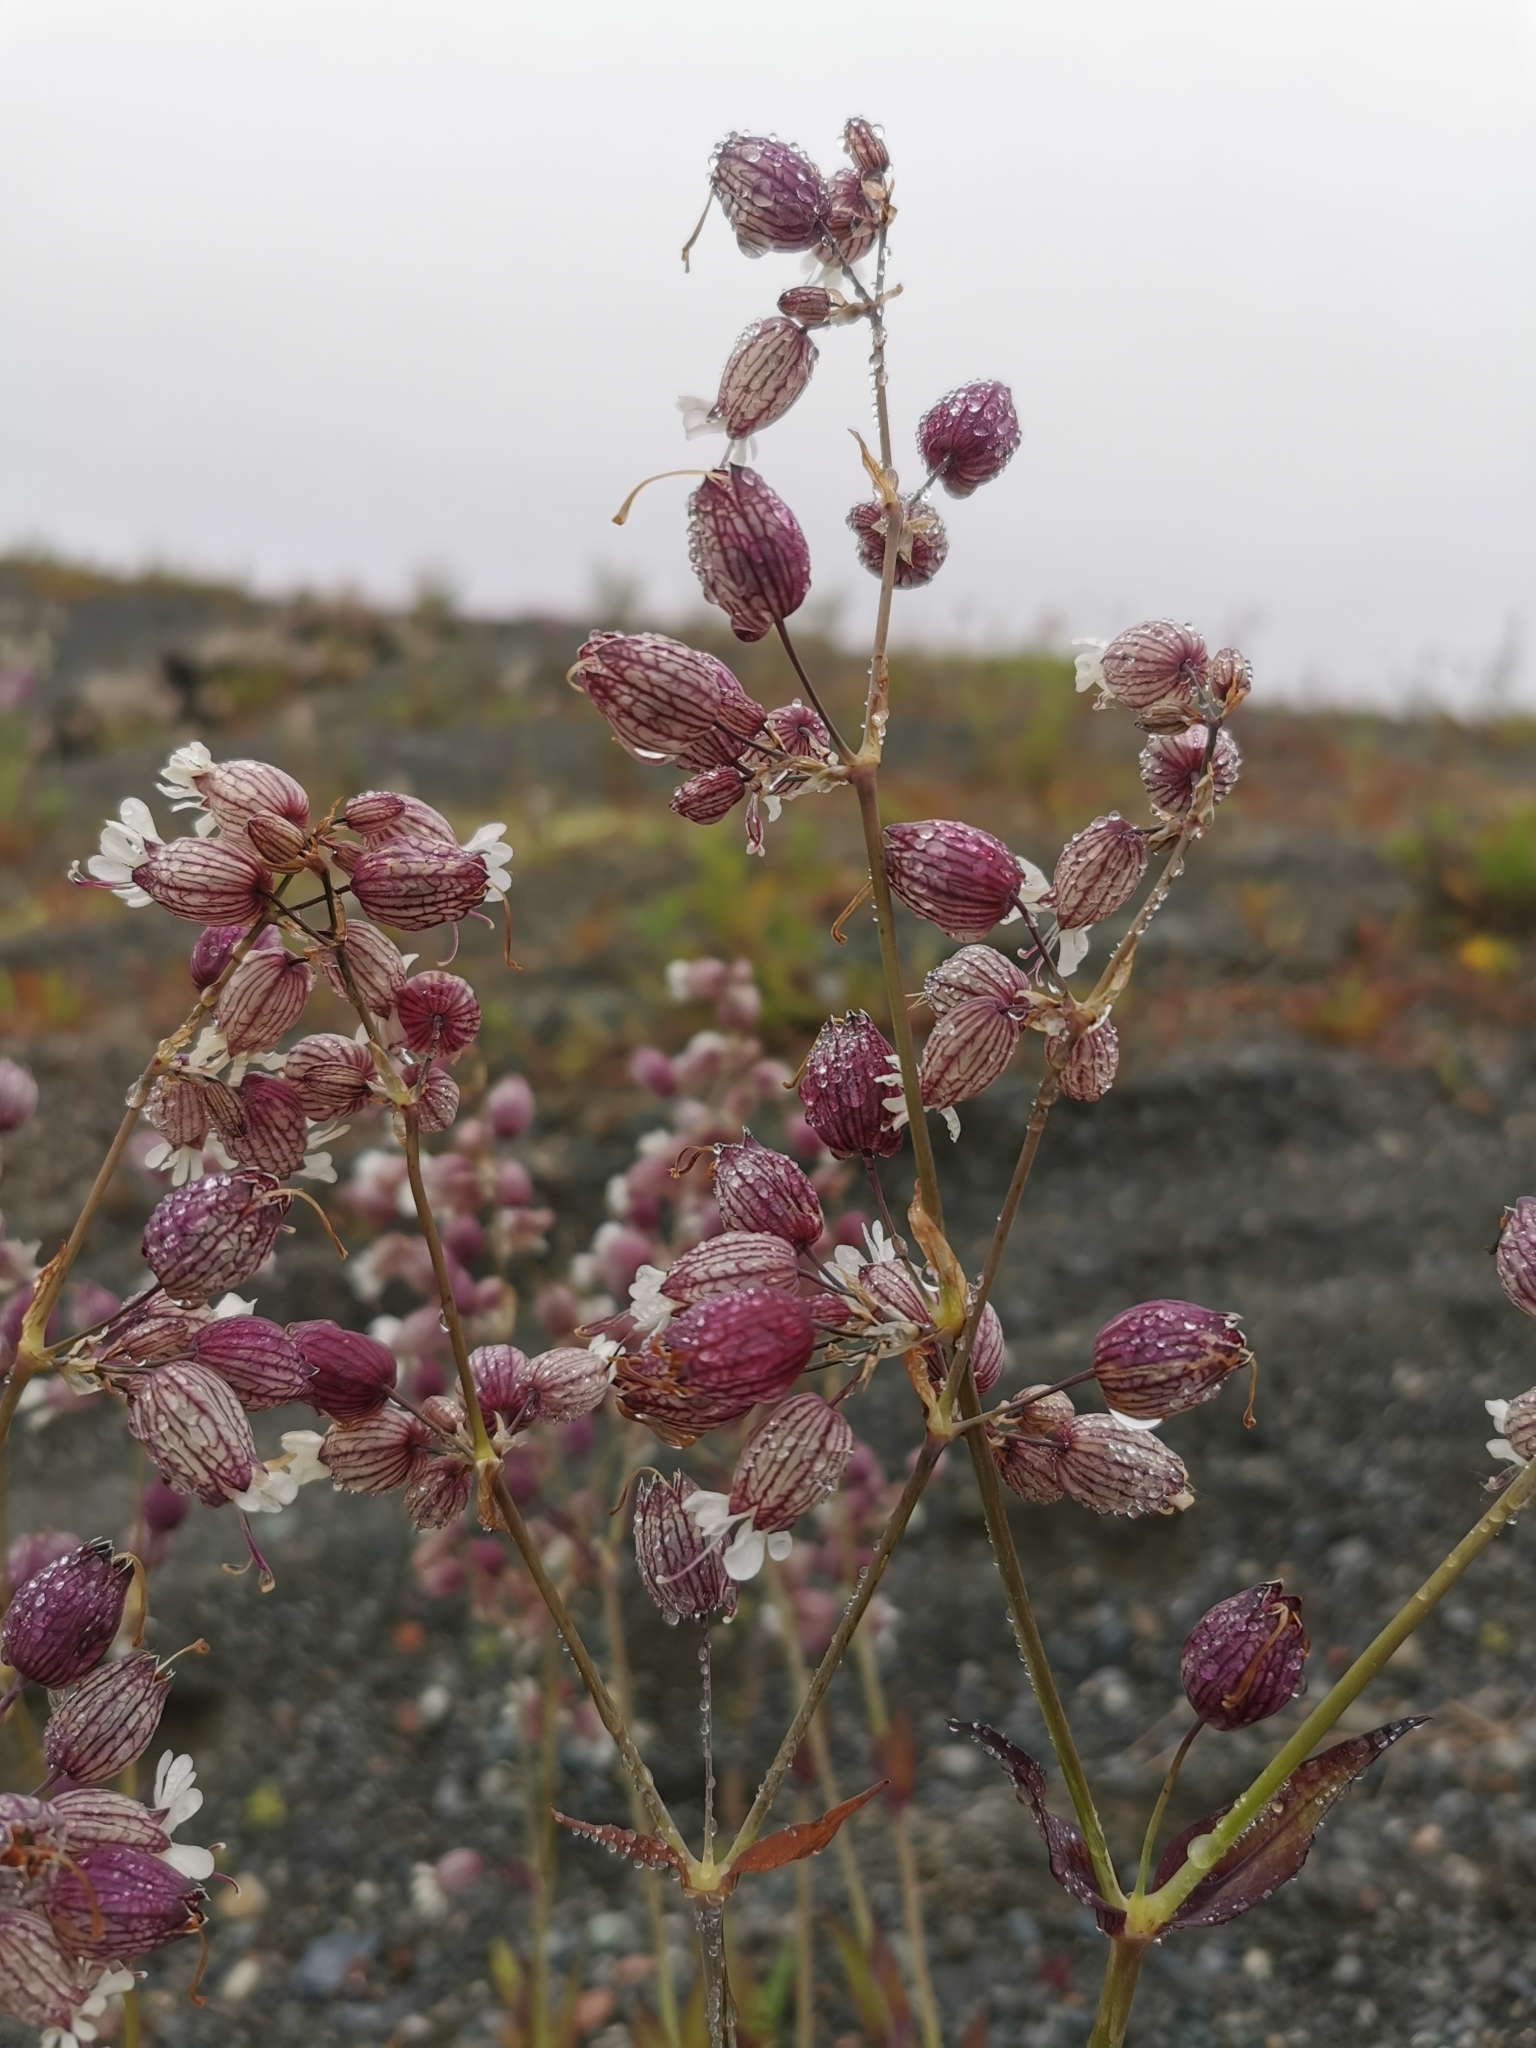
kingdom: Plantae
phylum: Tracheophyta
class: Magnoliopsida
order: Caryophyllales
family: Caryophyllaceae
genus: Silene
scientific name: Silene vulgaris
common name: Bladder campion
